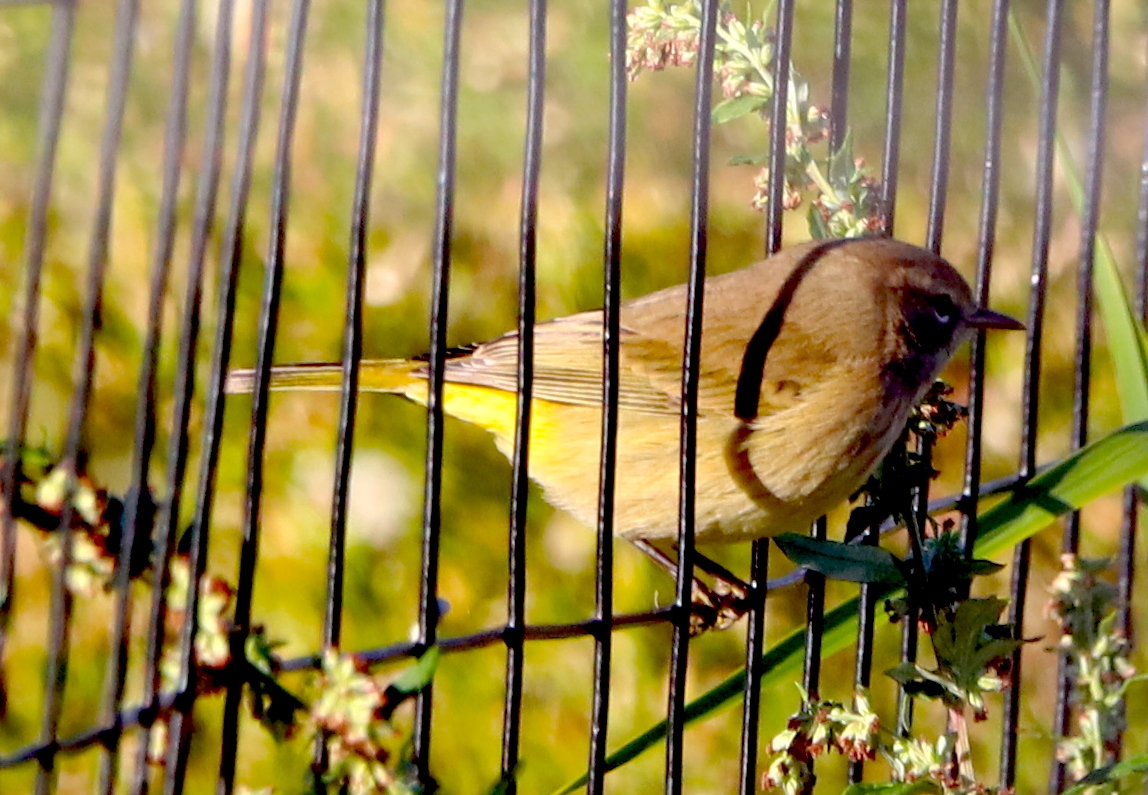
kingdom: Animalia
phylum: Chordata
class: Aves
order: Passeriformes
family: Parulidae
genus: Setophaga
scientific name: Setophaga palmarum
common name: Palm warbler
